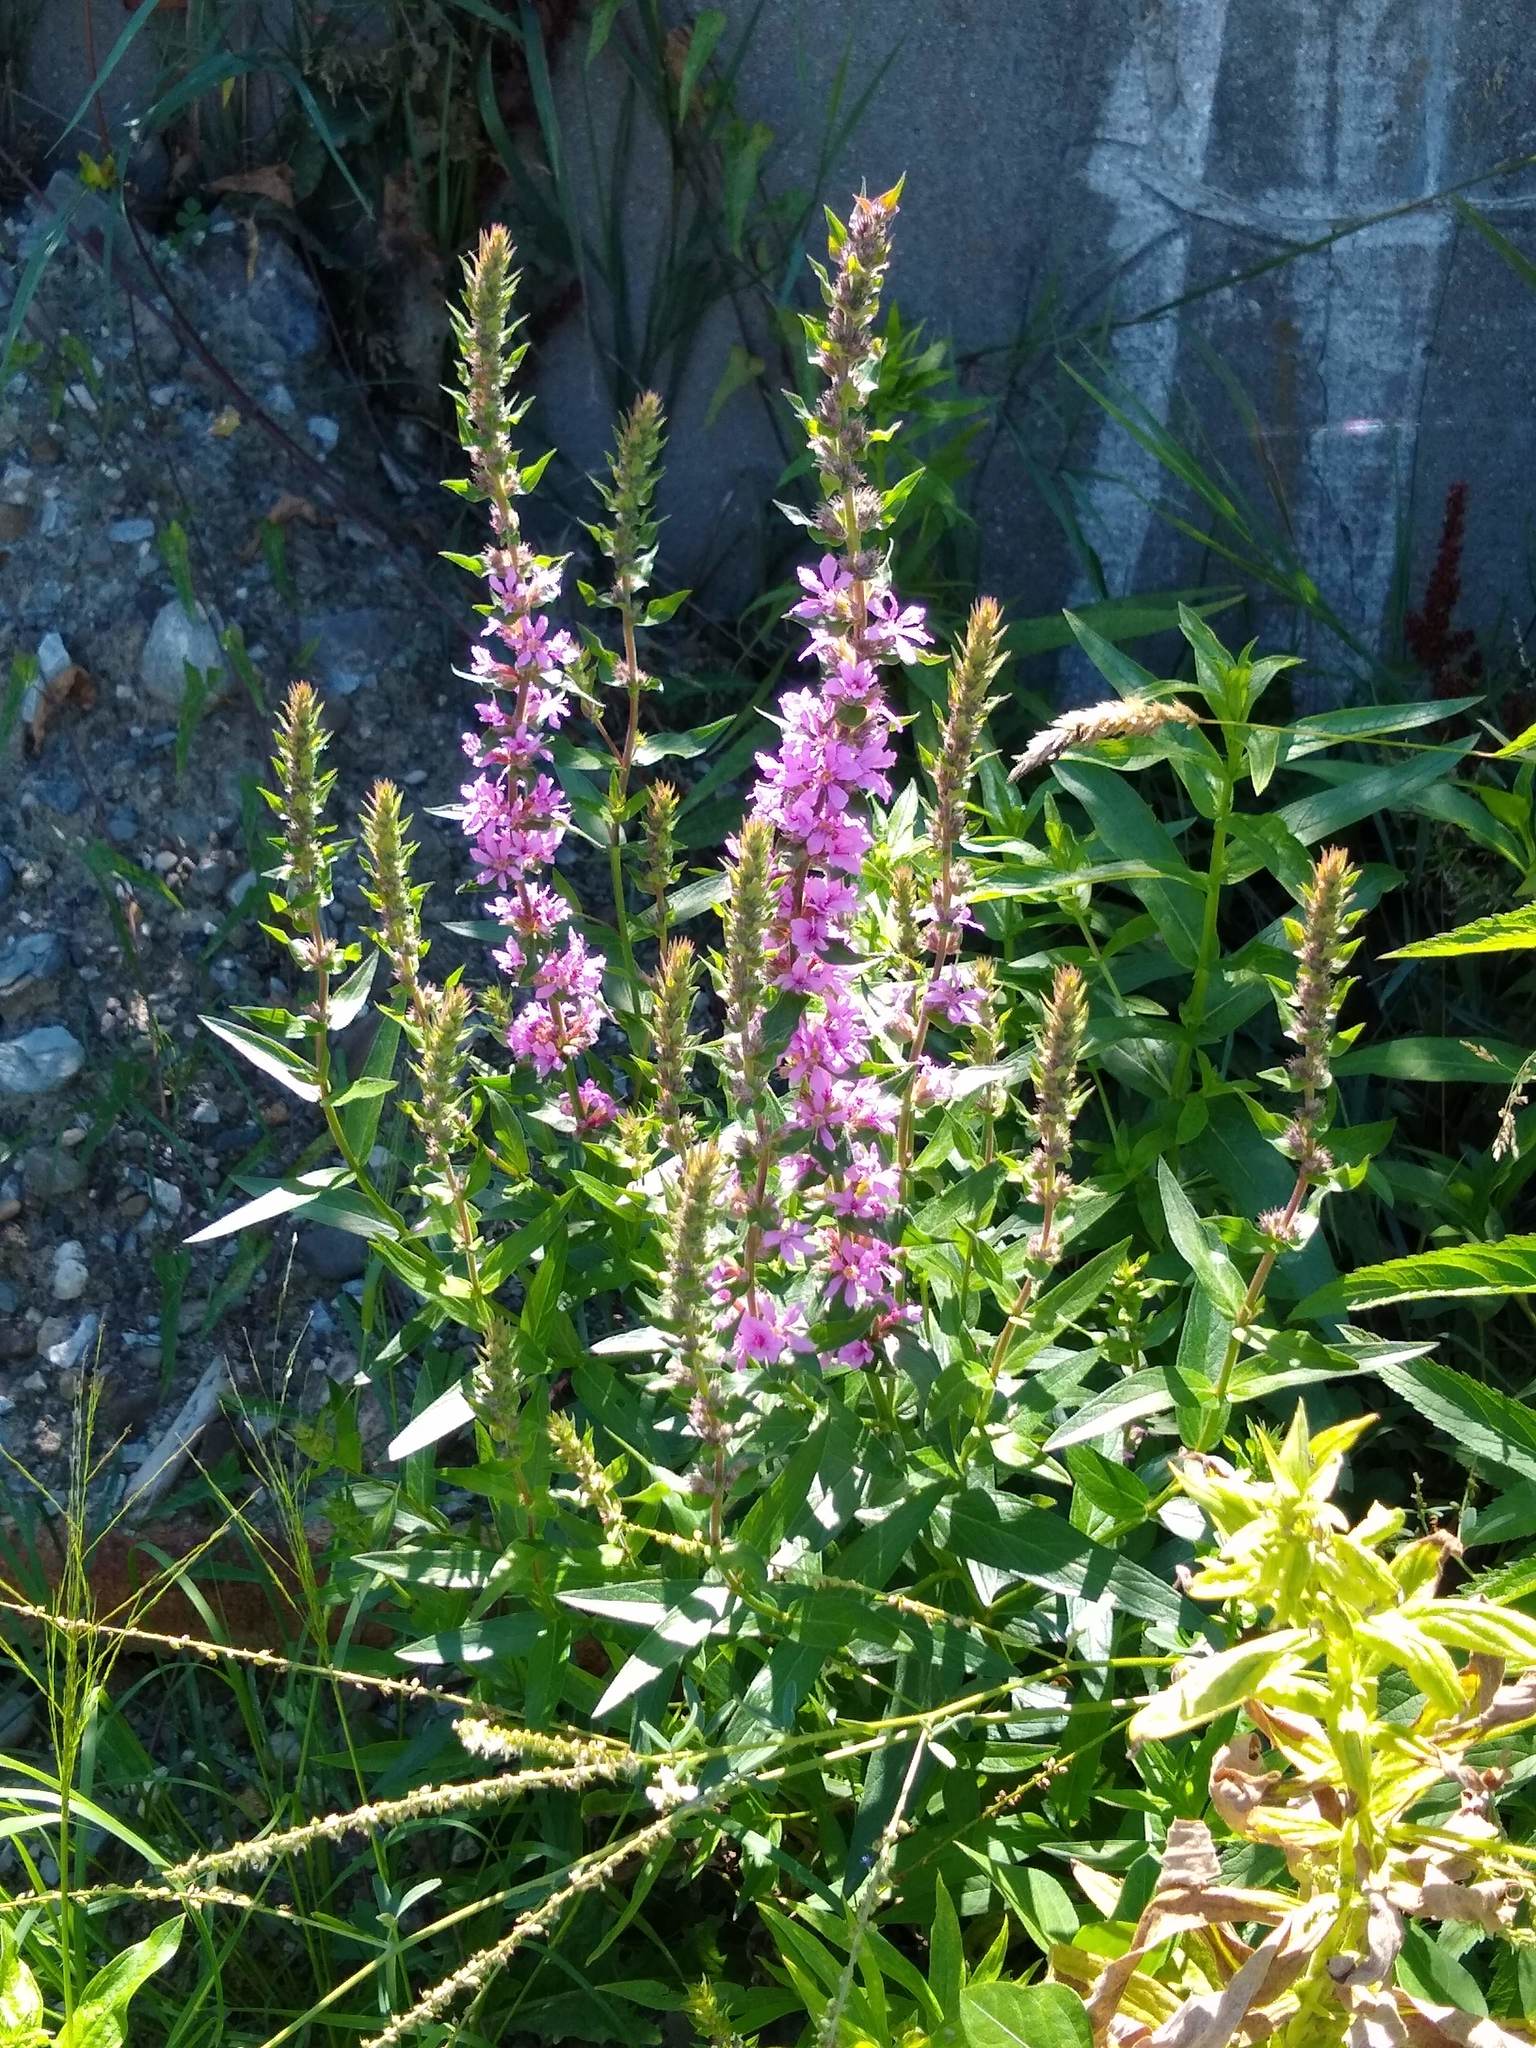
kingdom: Plantae
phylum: Tracheophyta
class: Magnoliopsida
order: Myrtales
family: Lythraceae
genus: Lythrum
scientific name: Lythrum salicaria
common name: Purple loosestrife
